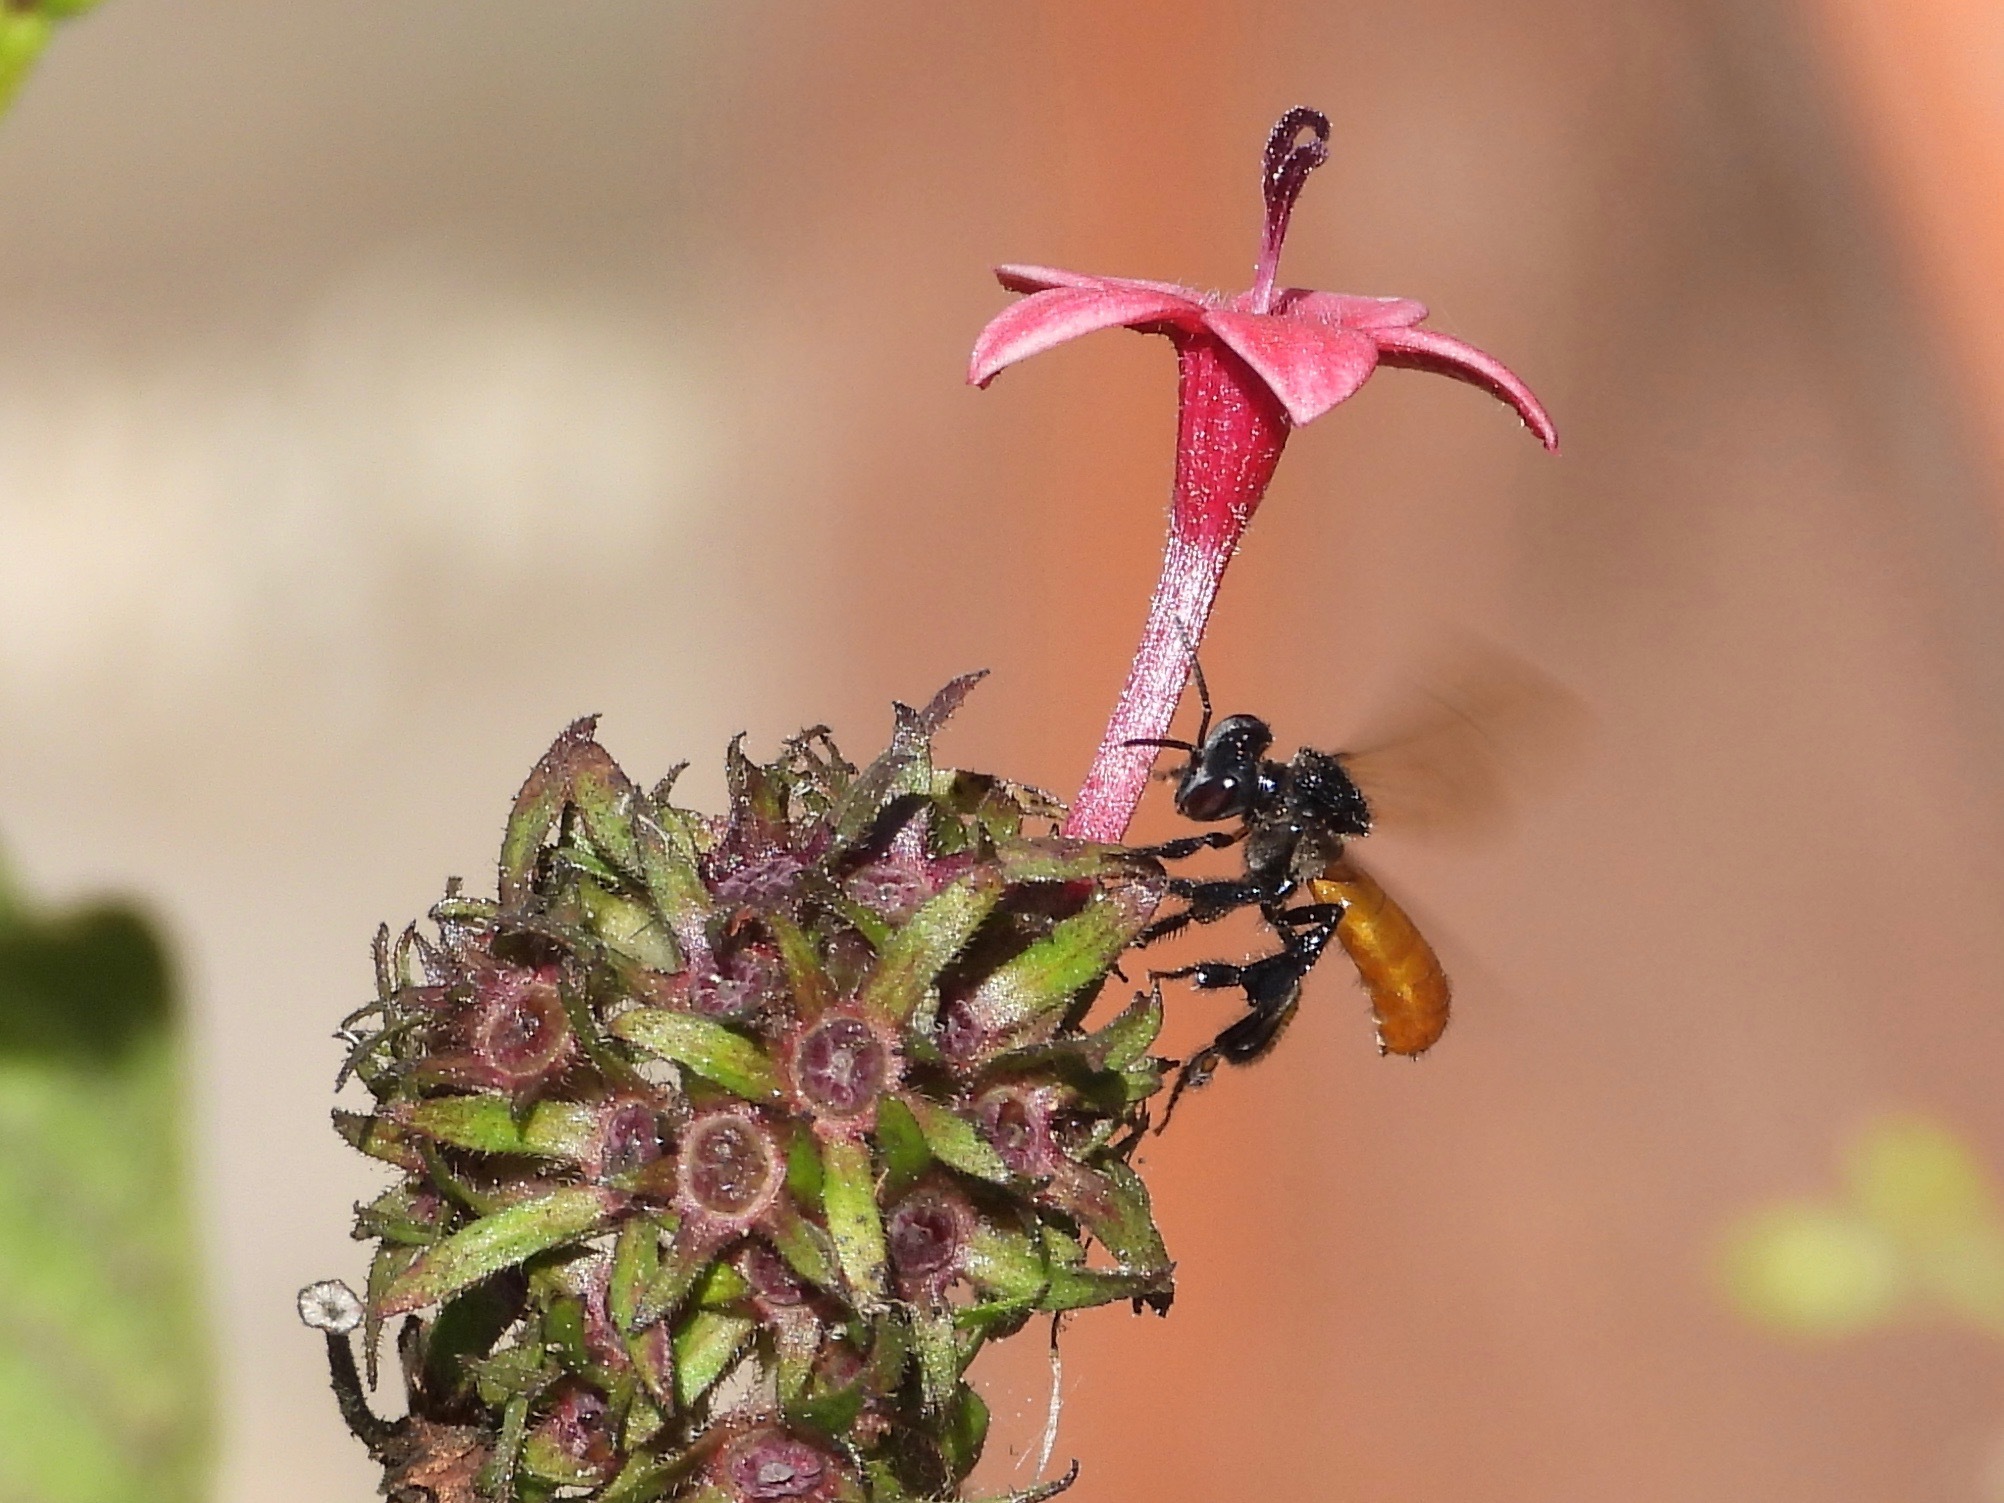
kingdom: Animalia
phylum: Arthropoda
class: Insecta
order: Hymenoptera
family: Apidae
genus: Trigona
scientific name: Trigona fulviventris
